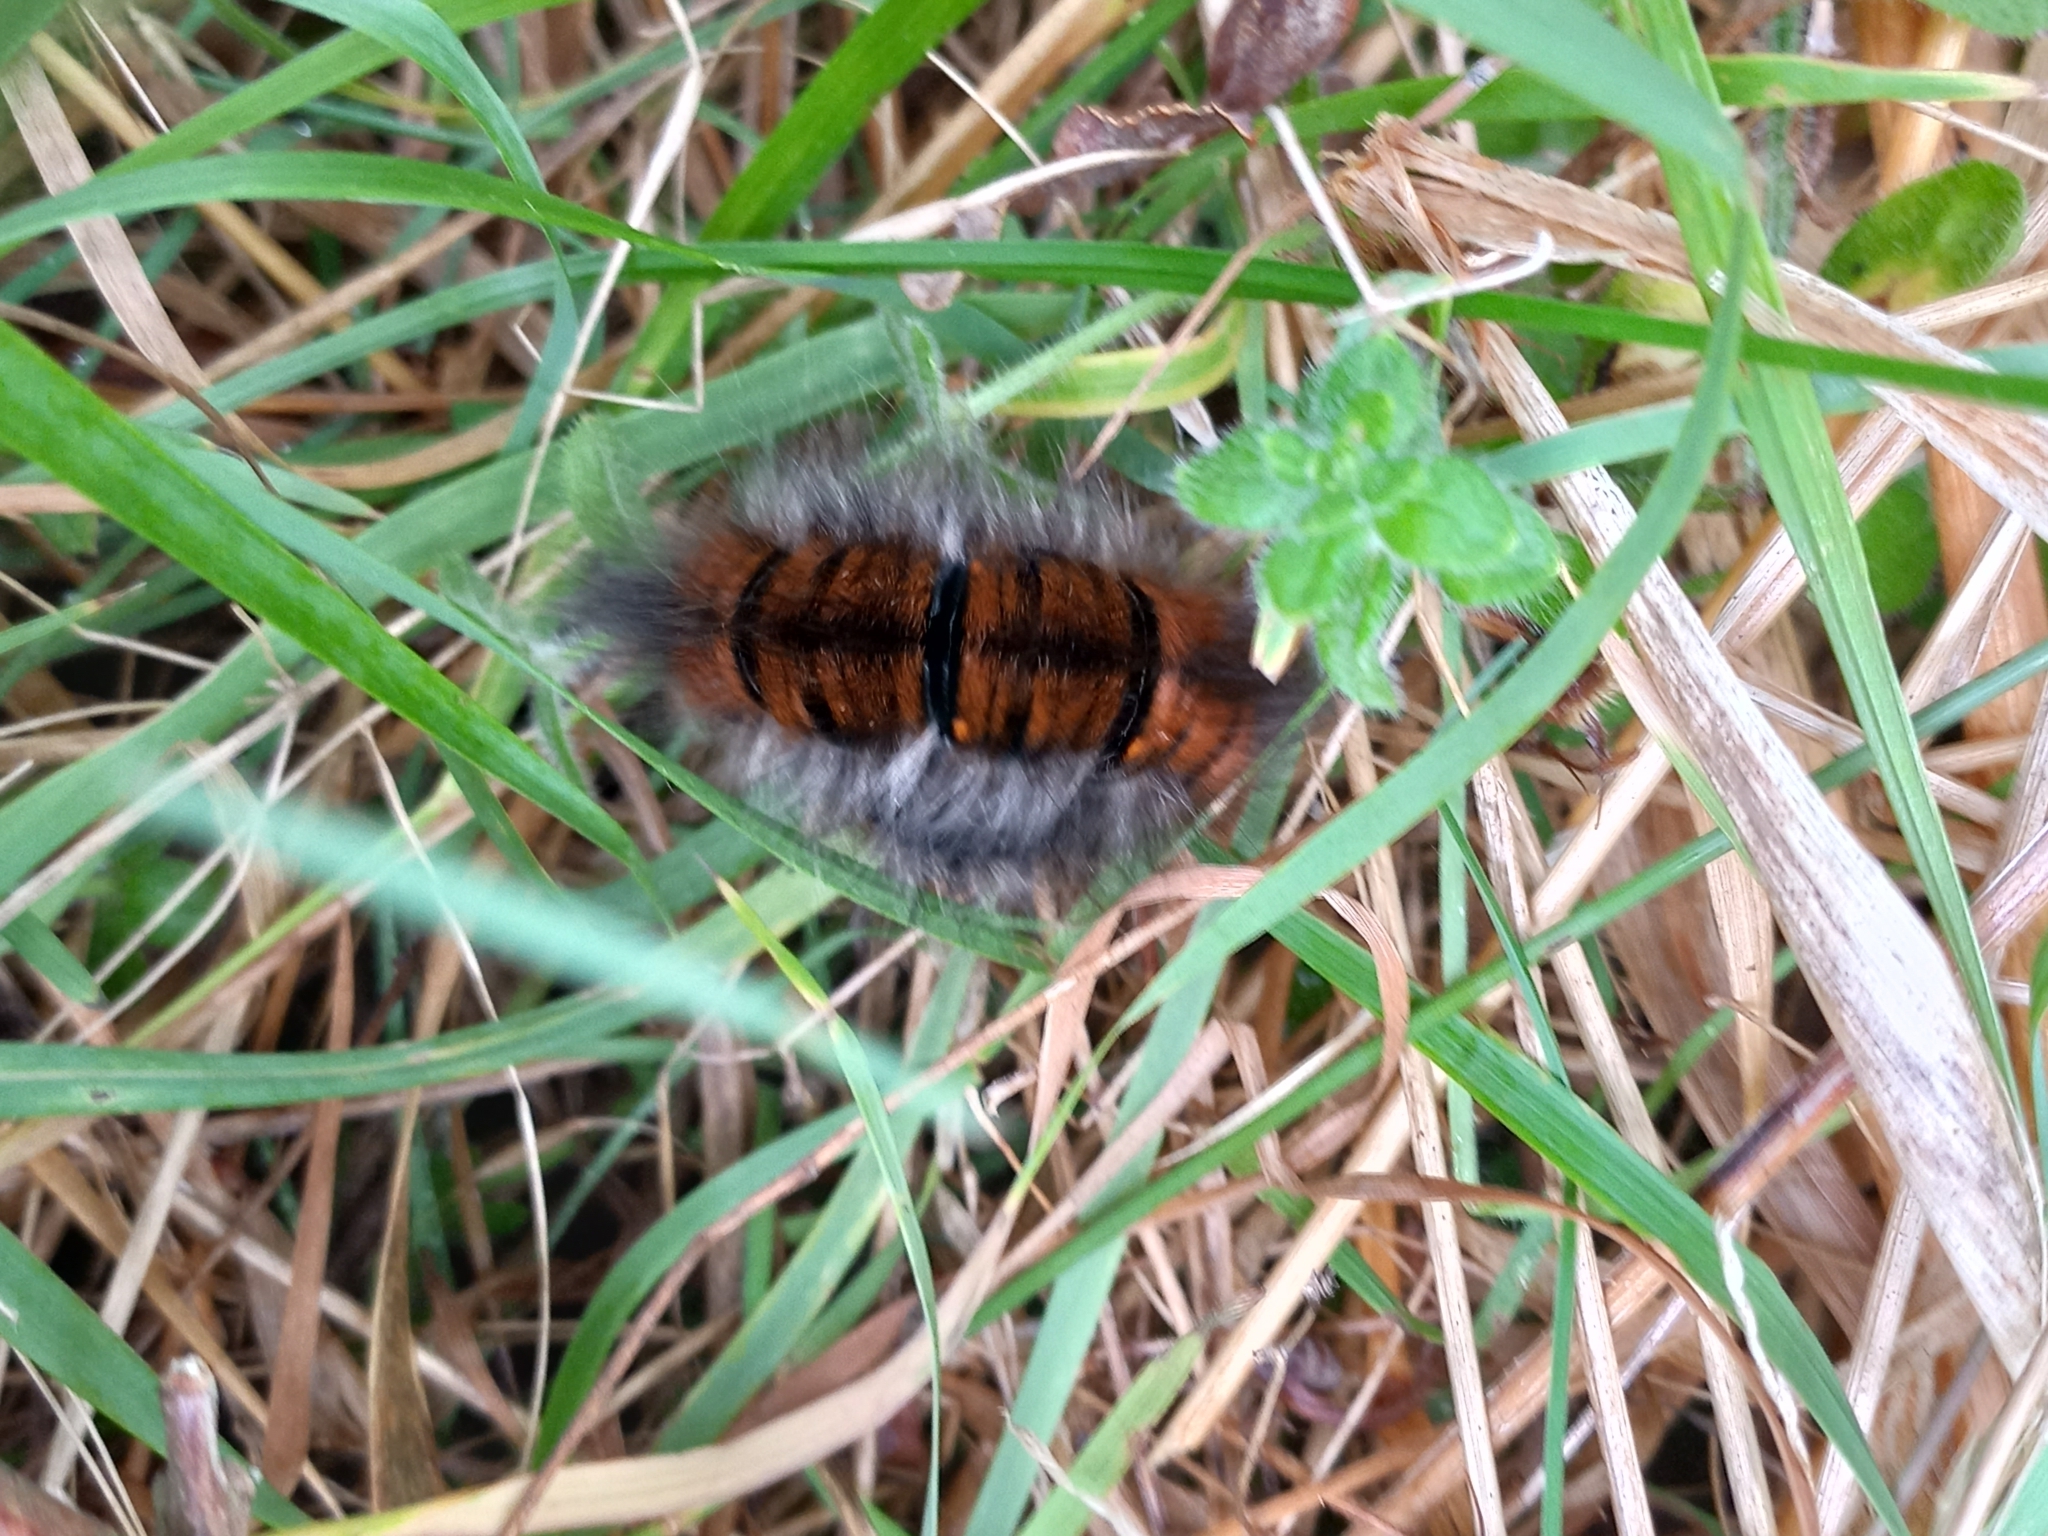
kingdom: Animalia
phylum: Arthropoda
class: Insecta
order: Lepidoptera
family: Lasiocampidae
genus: Macrothylacia
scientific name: Macrothylacia rubi
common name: Fox moth
